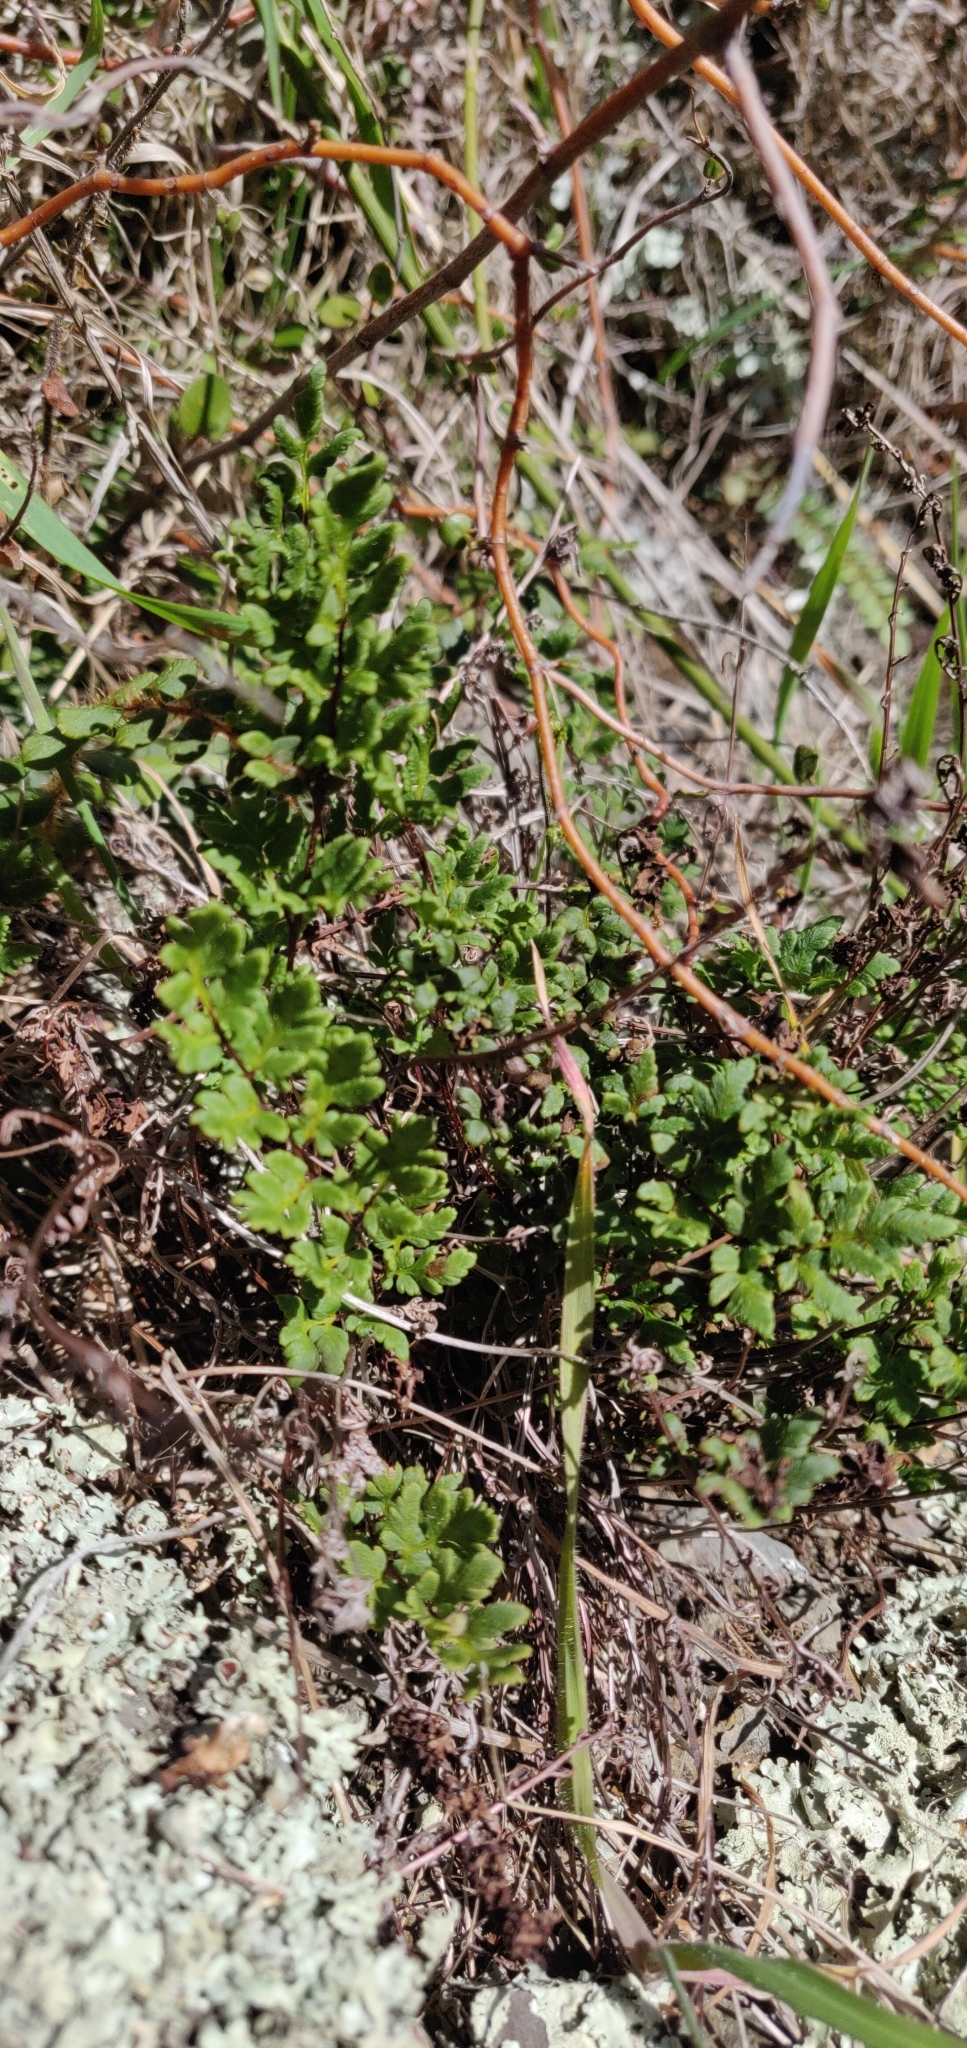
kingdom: Plantae
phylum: Tracheophyta
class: Polypodiopsida
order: Polypodiales
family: Pteridaceae
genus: Cheilanthes
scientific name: Cheilanthes sieberi
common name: Mulga fern
